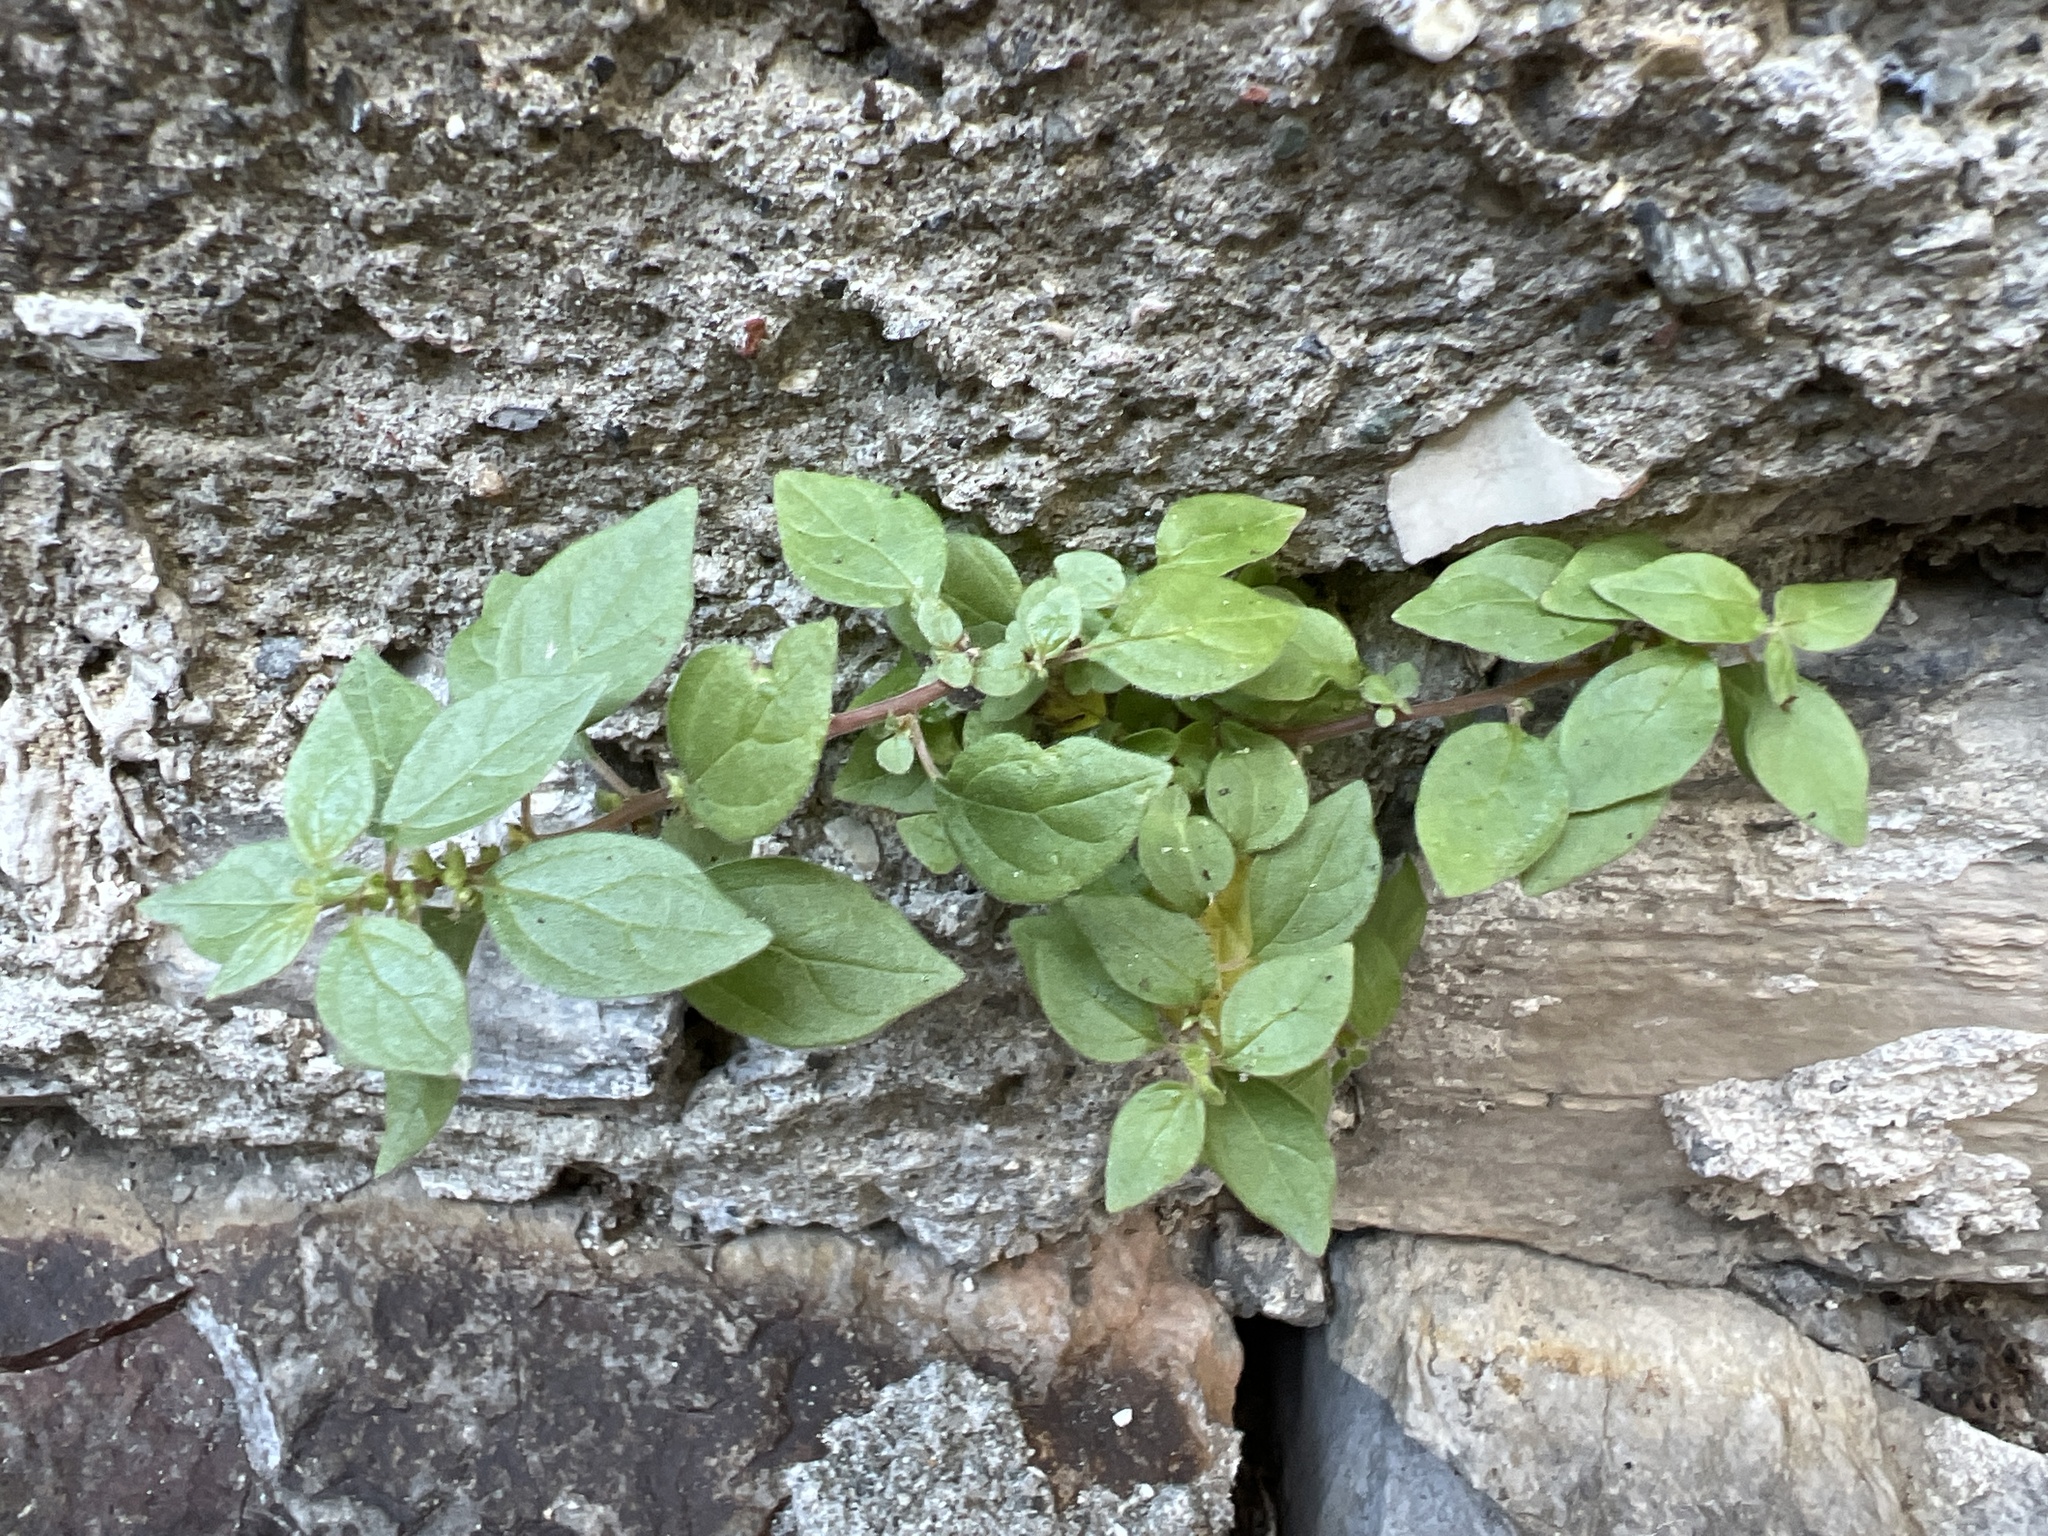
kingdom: Plantae
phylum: Tracheophyta
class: Magnoliopsida
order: Rosales
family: Urticaceae
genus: Parietaria
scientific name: Parietaria judaica
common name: Pellitory-of-the-wall
